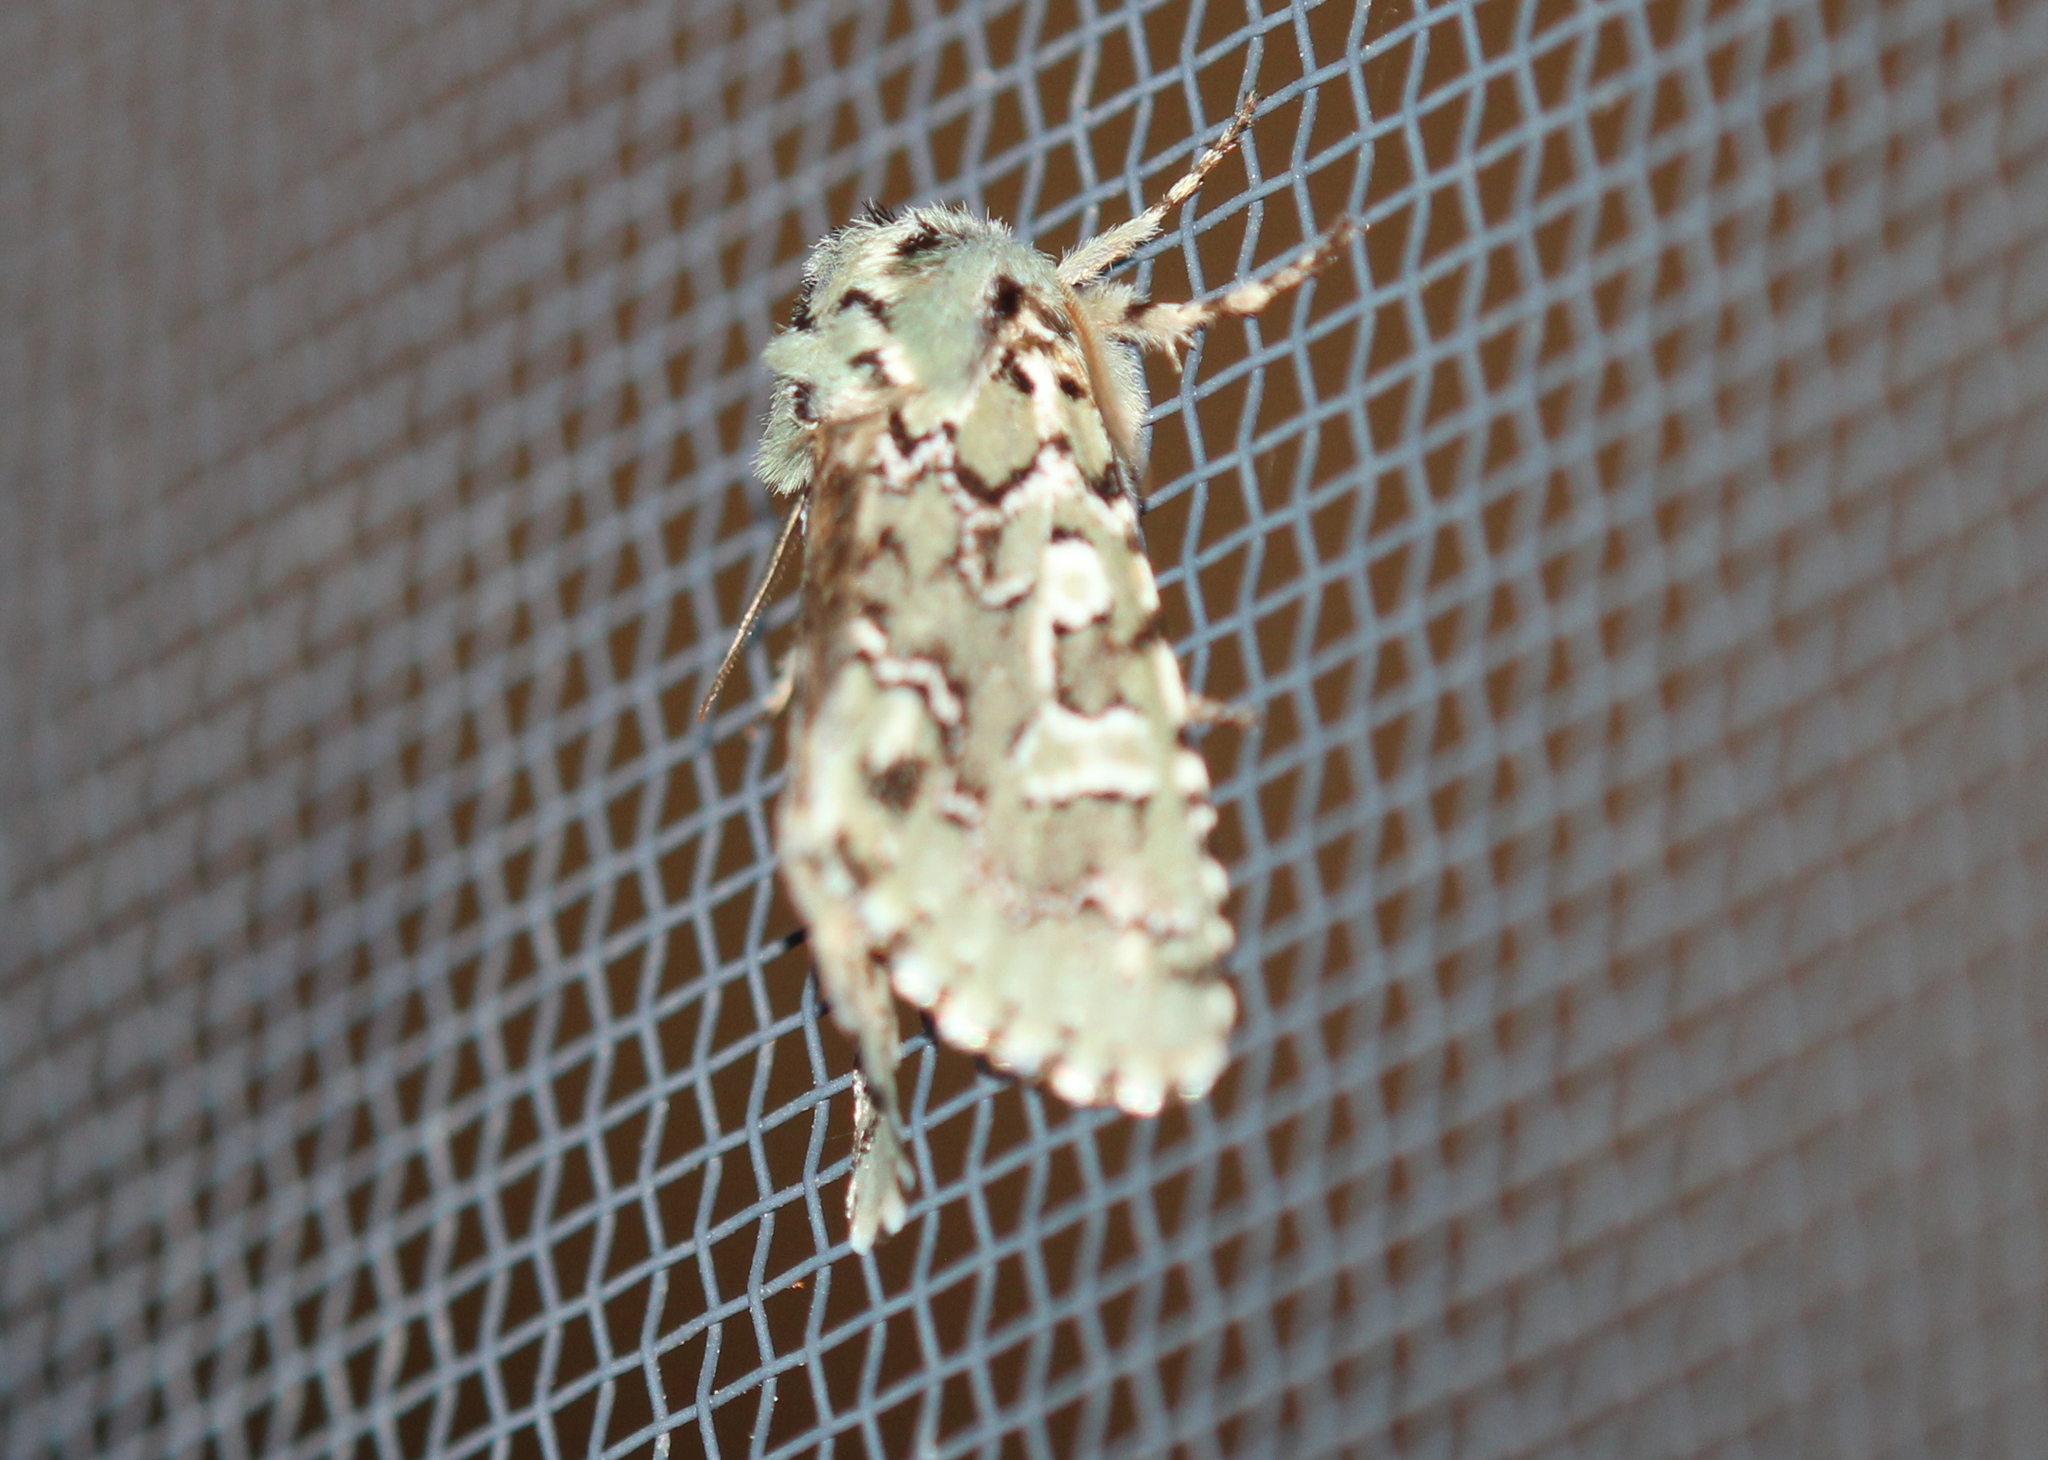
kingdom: Animalia
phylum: Arthropoda
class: Insecta
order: Lepidoptera
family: Noctuidae
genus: Feralia
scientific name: Feralia jocosa
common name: Joker
